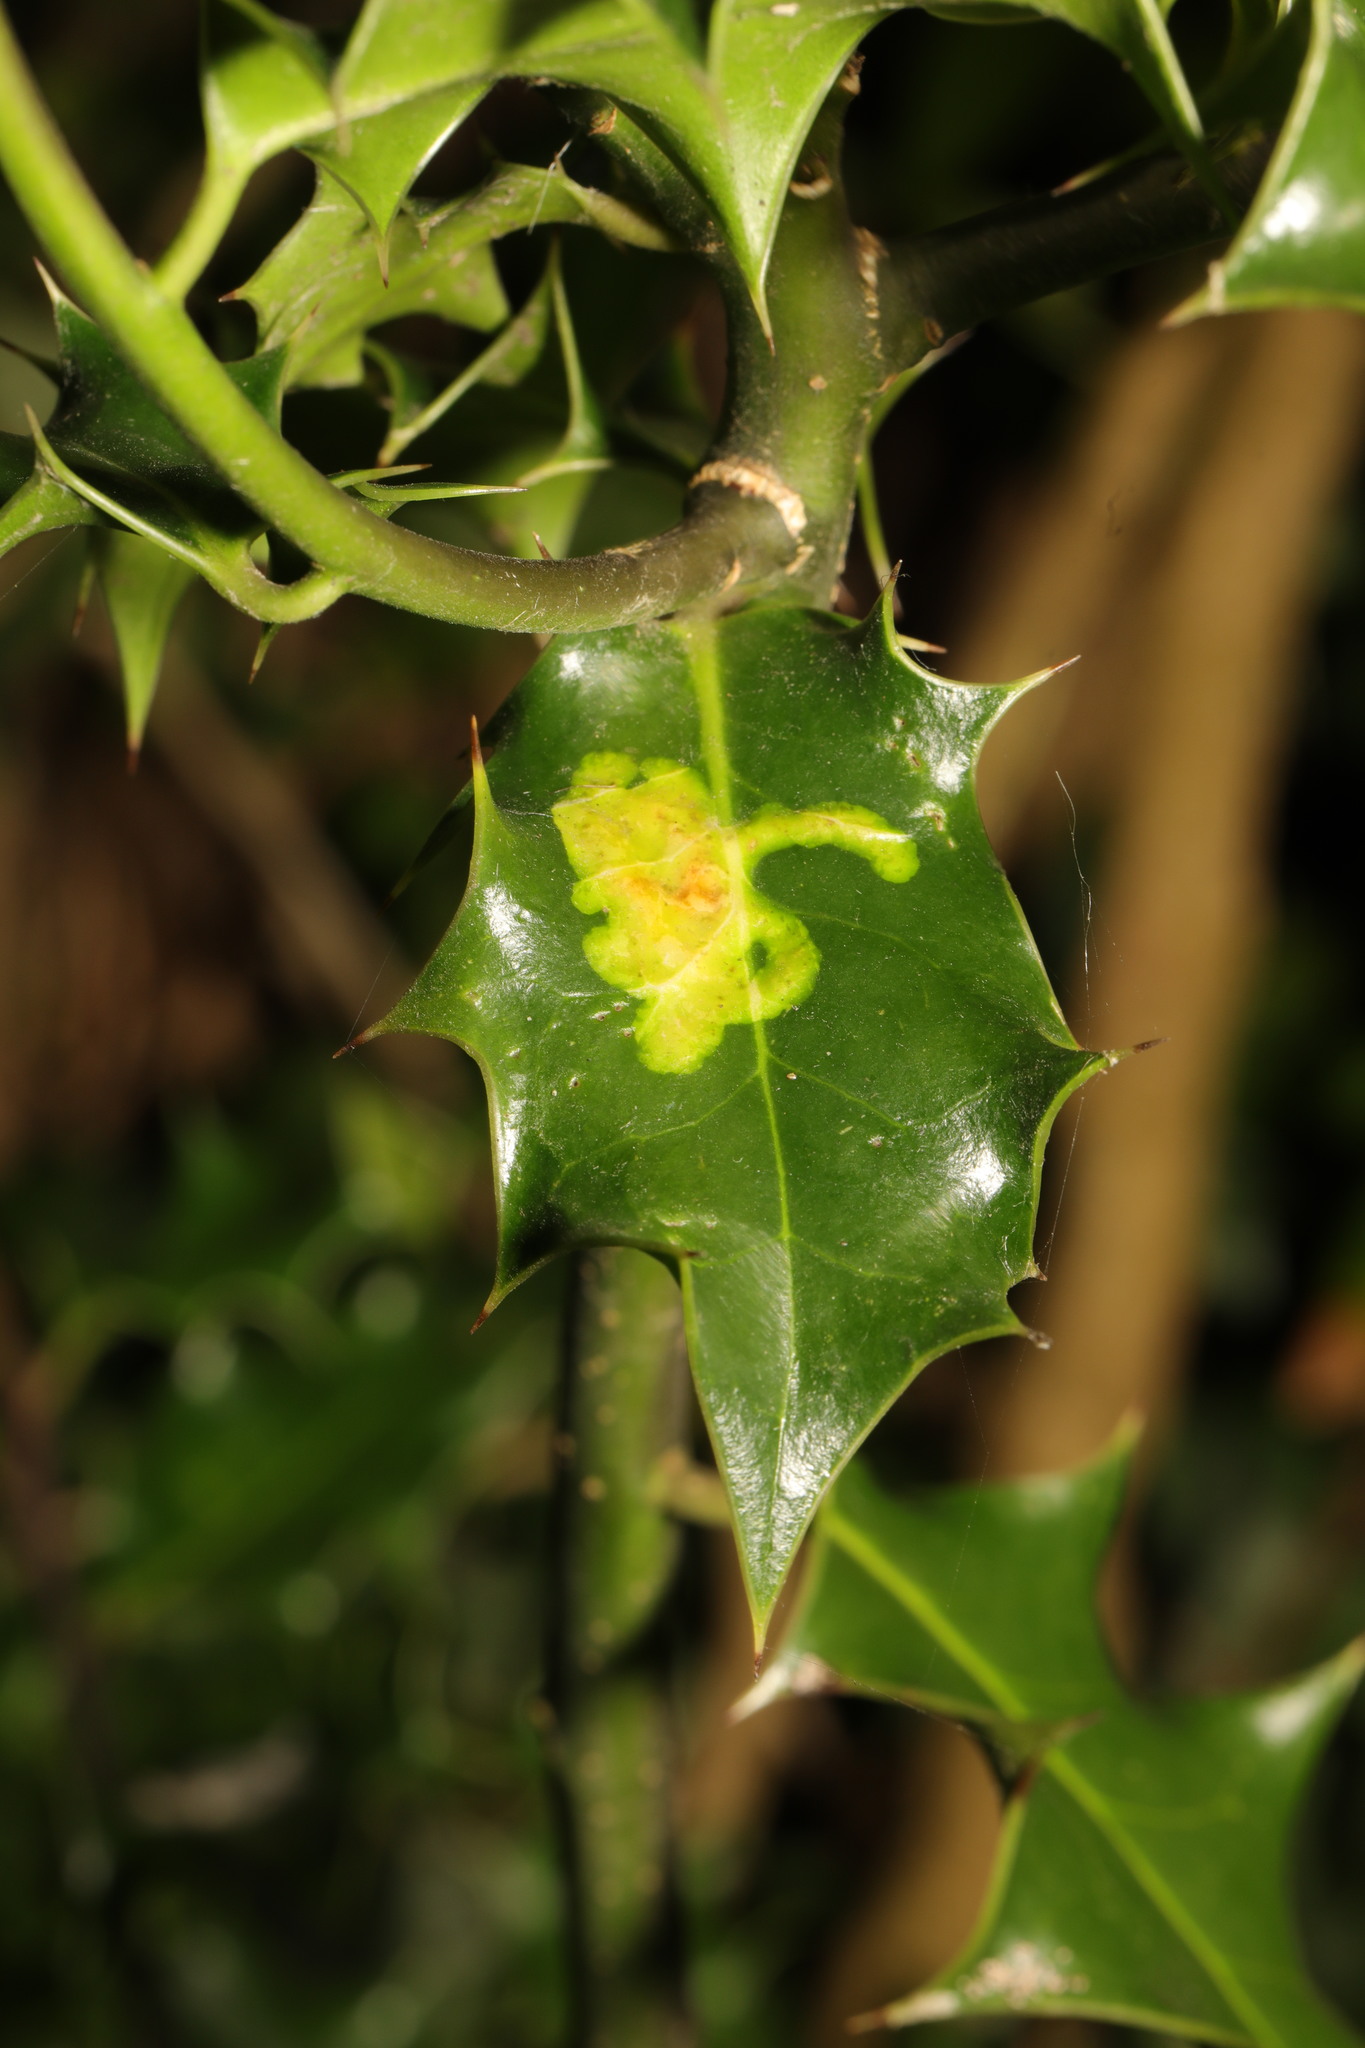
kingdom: Animalia
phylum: Arthropoda
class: Insecta
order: Diptera
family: Agromyzidae
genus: Phytomyza
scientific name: Phytomyza ilicis
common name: Holly leafminer
